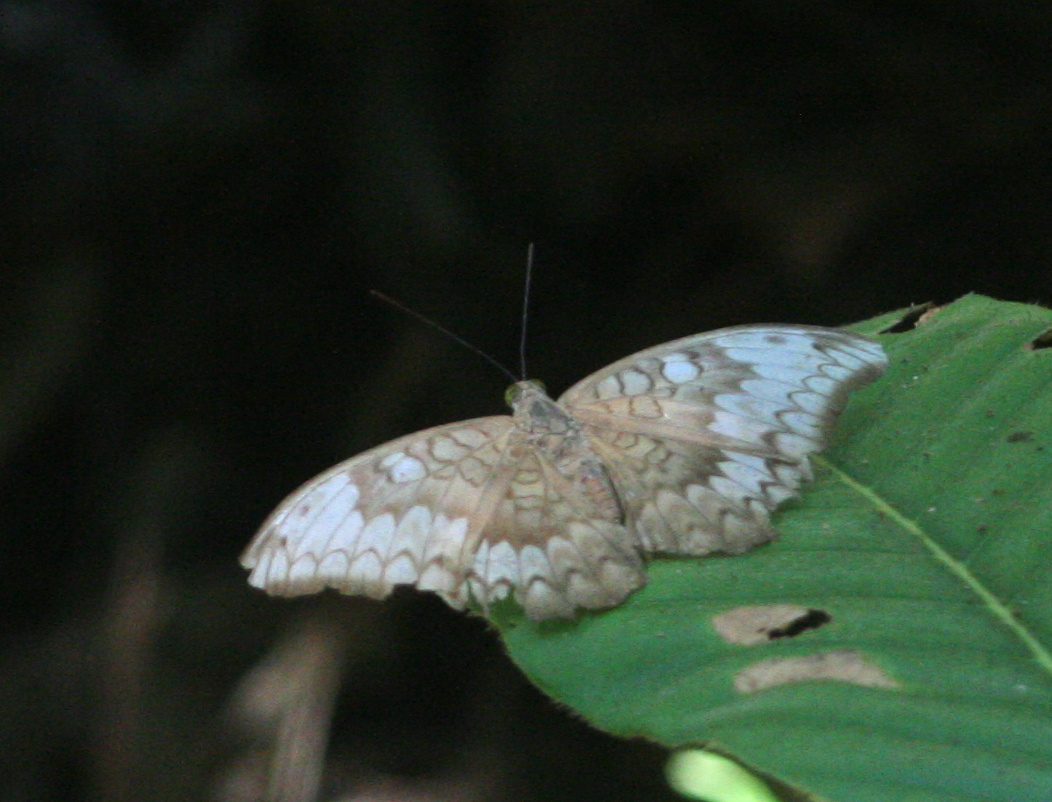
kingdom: Animalia
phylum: Arthropoda
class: Insecta
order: Lepidoptera
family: Nymphalidae
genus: Tanaecia
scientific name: Tanaecia jahnu
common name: Plain earl
